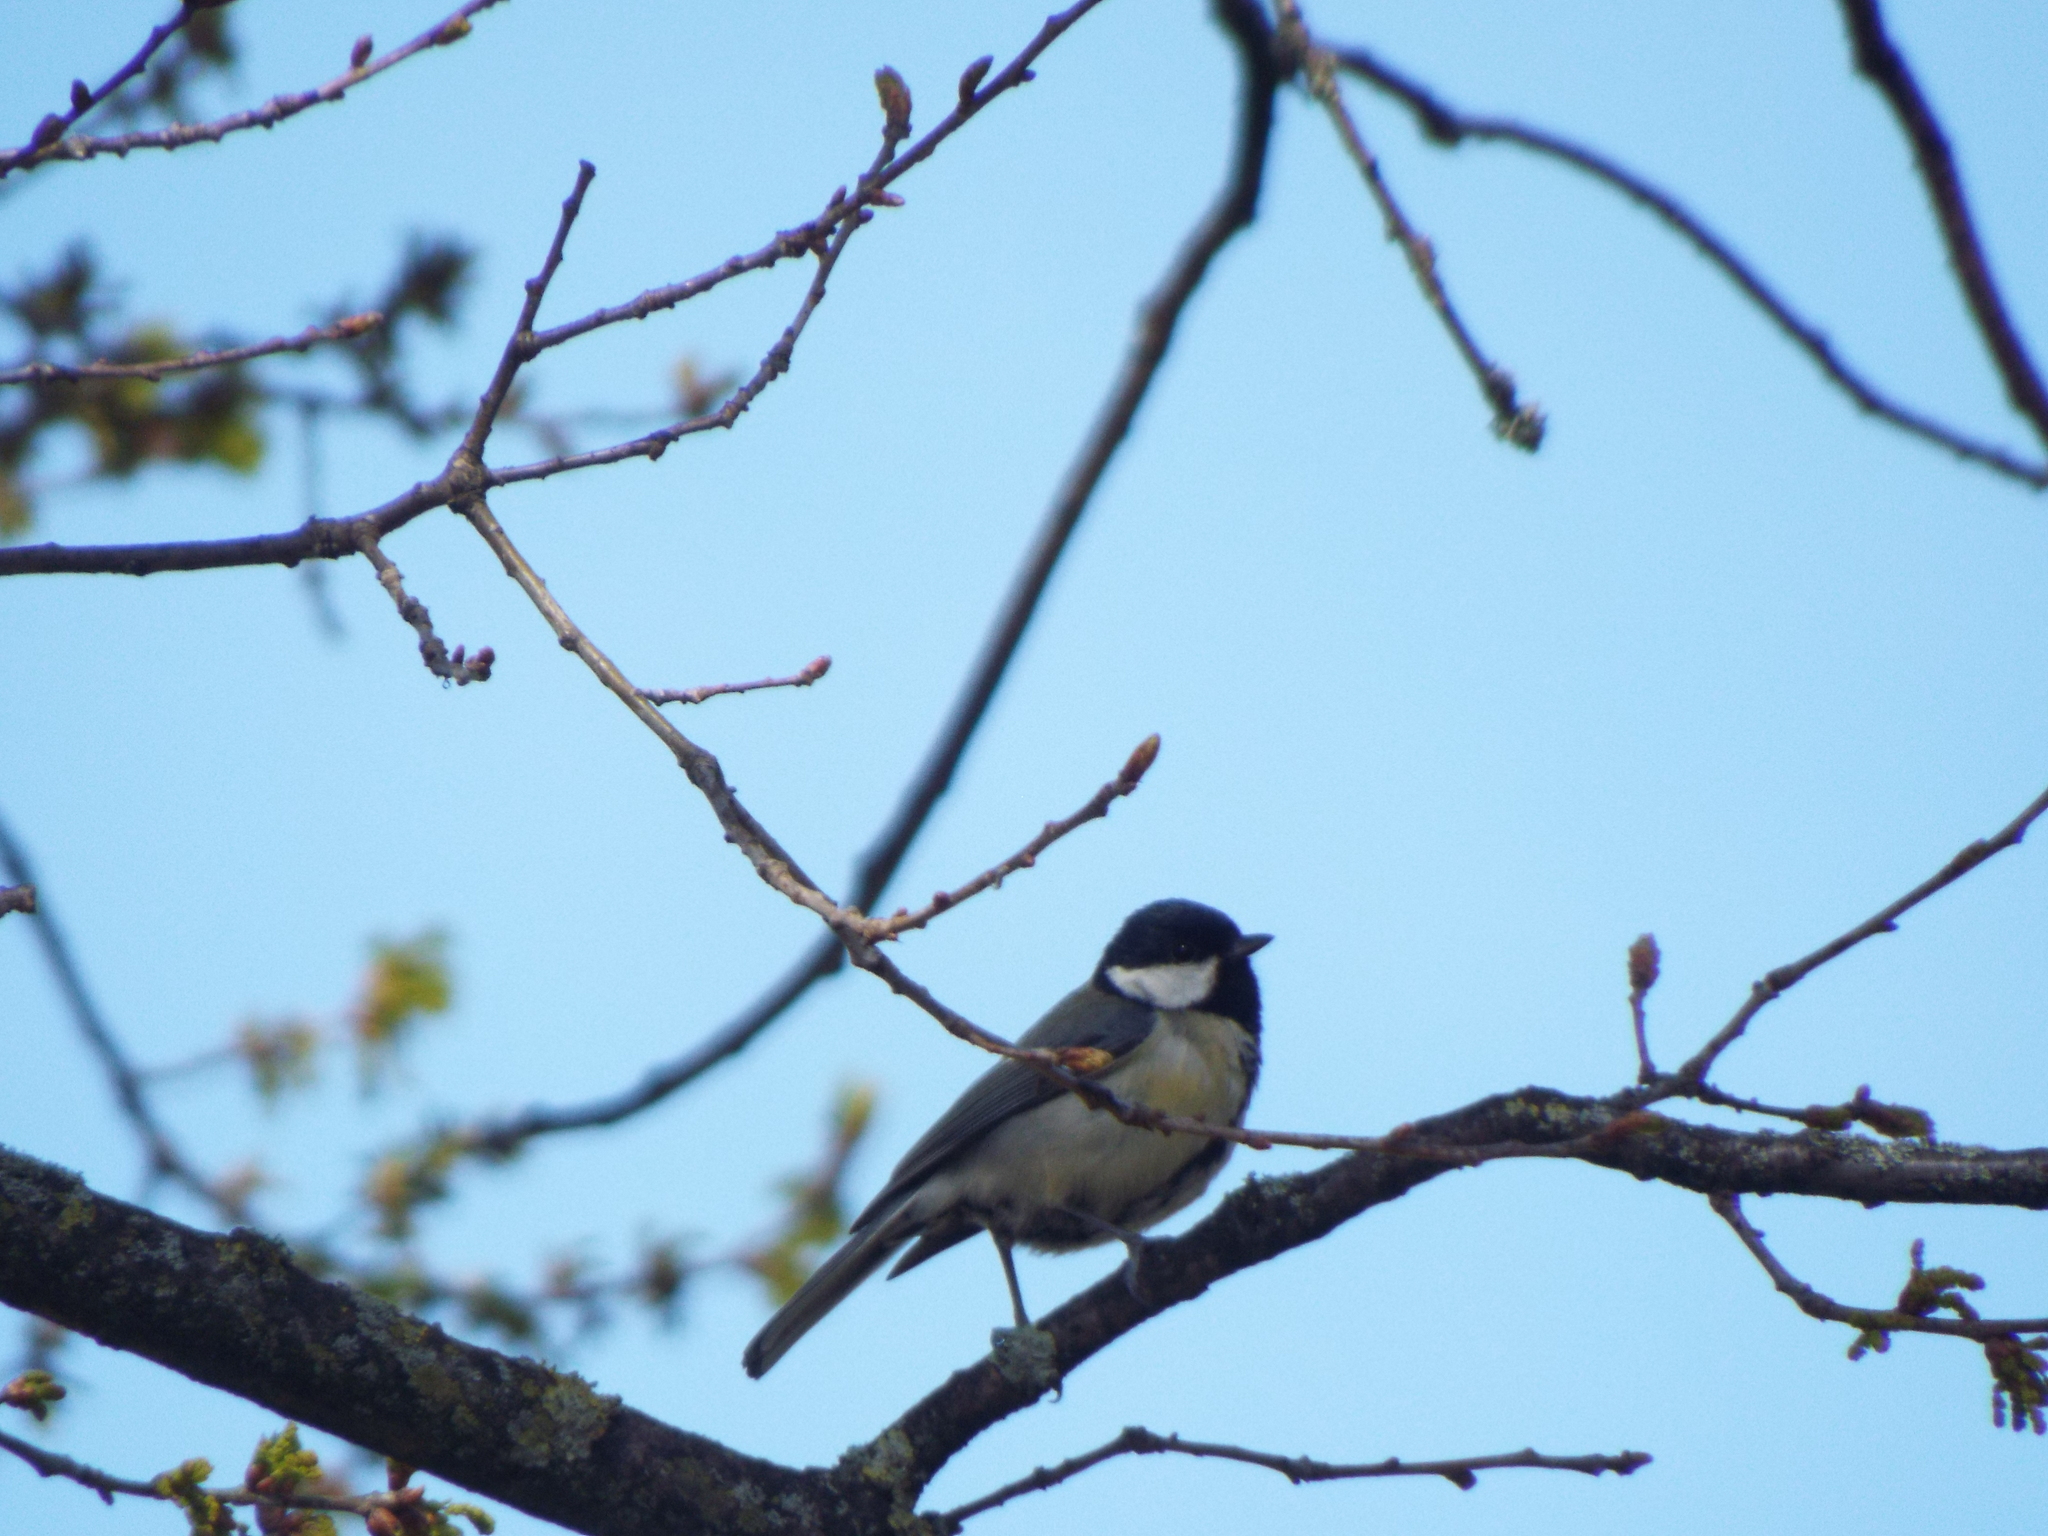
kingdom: Animalia
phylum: Chordata
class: Aves
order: Passeriformes
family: Paridae
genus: Parus
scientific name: Parus major
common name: Great tit
